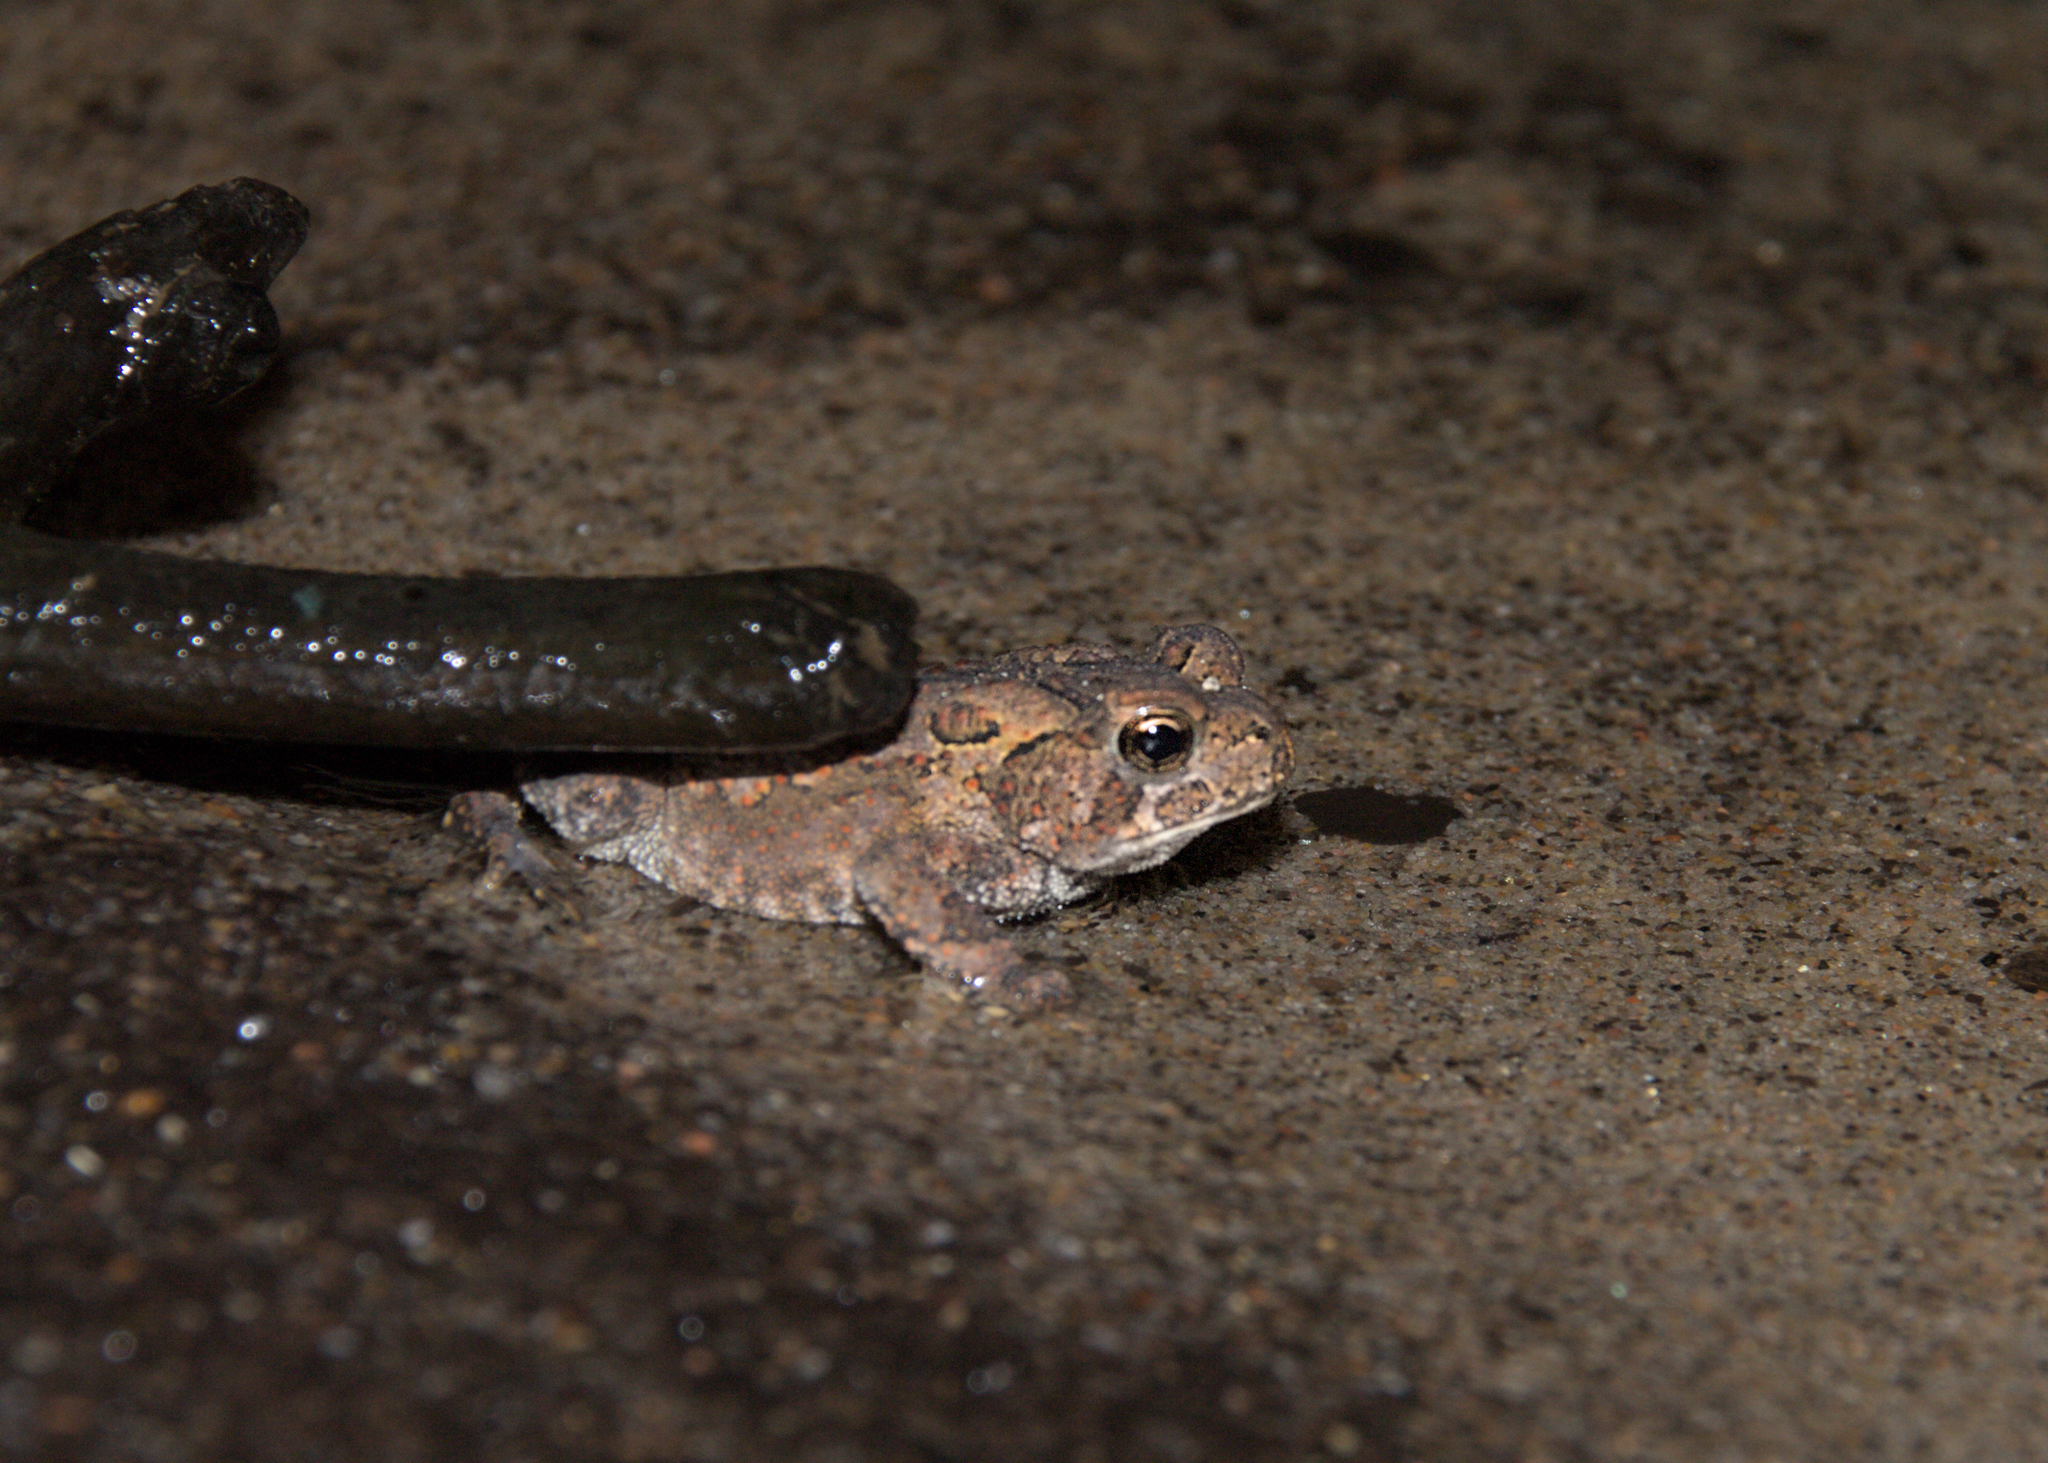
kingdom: Animalia
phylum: Chordata
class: Amphibia
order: Anura
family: Bufonidae
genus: Anaxyrus
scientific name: Anaxyrus americanus
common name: American toad
